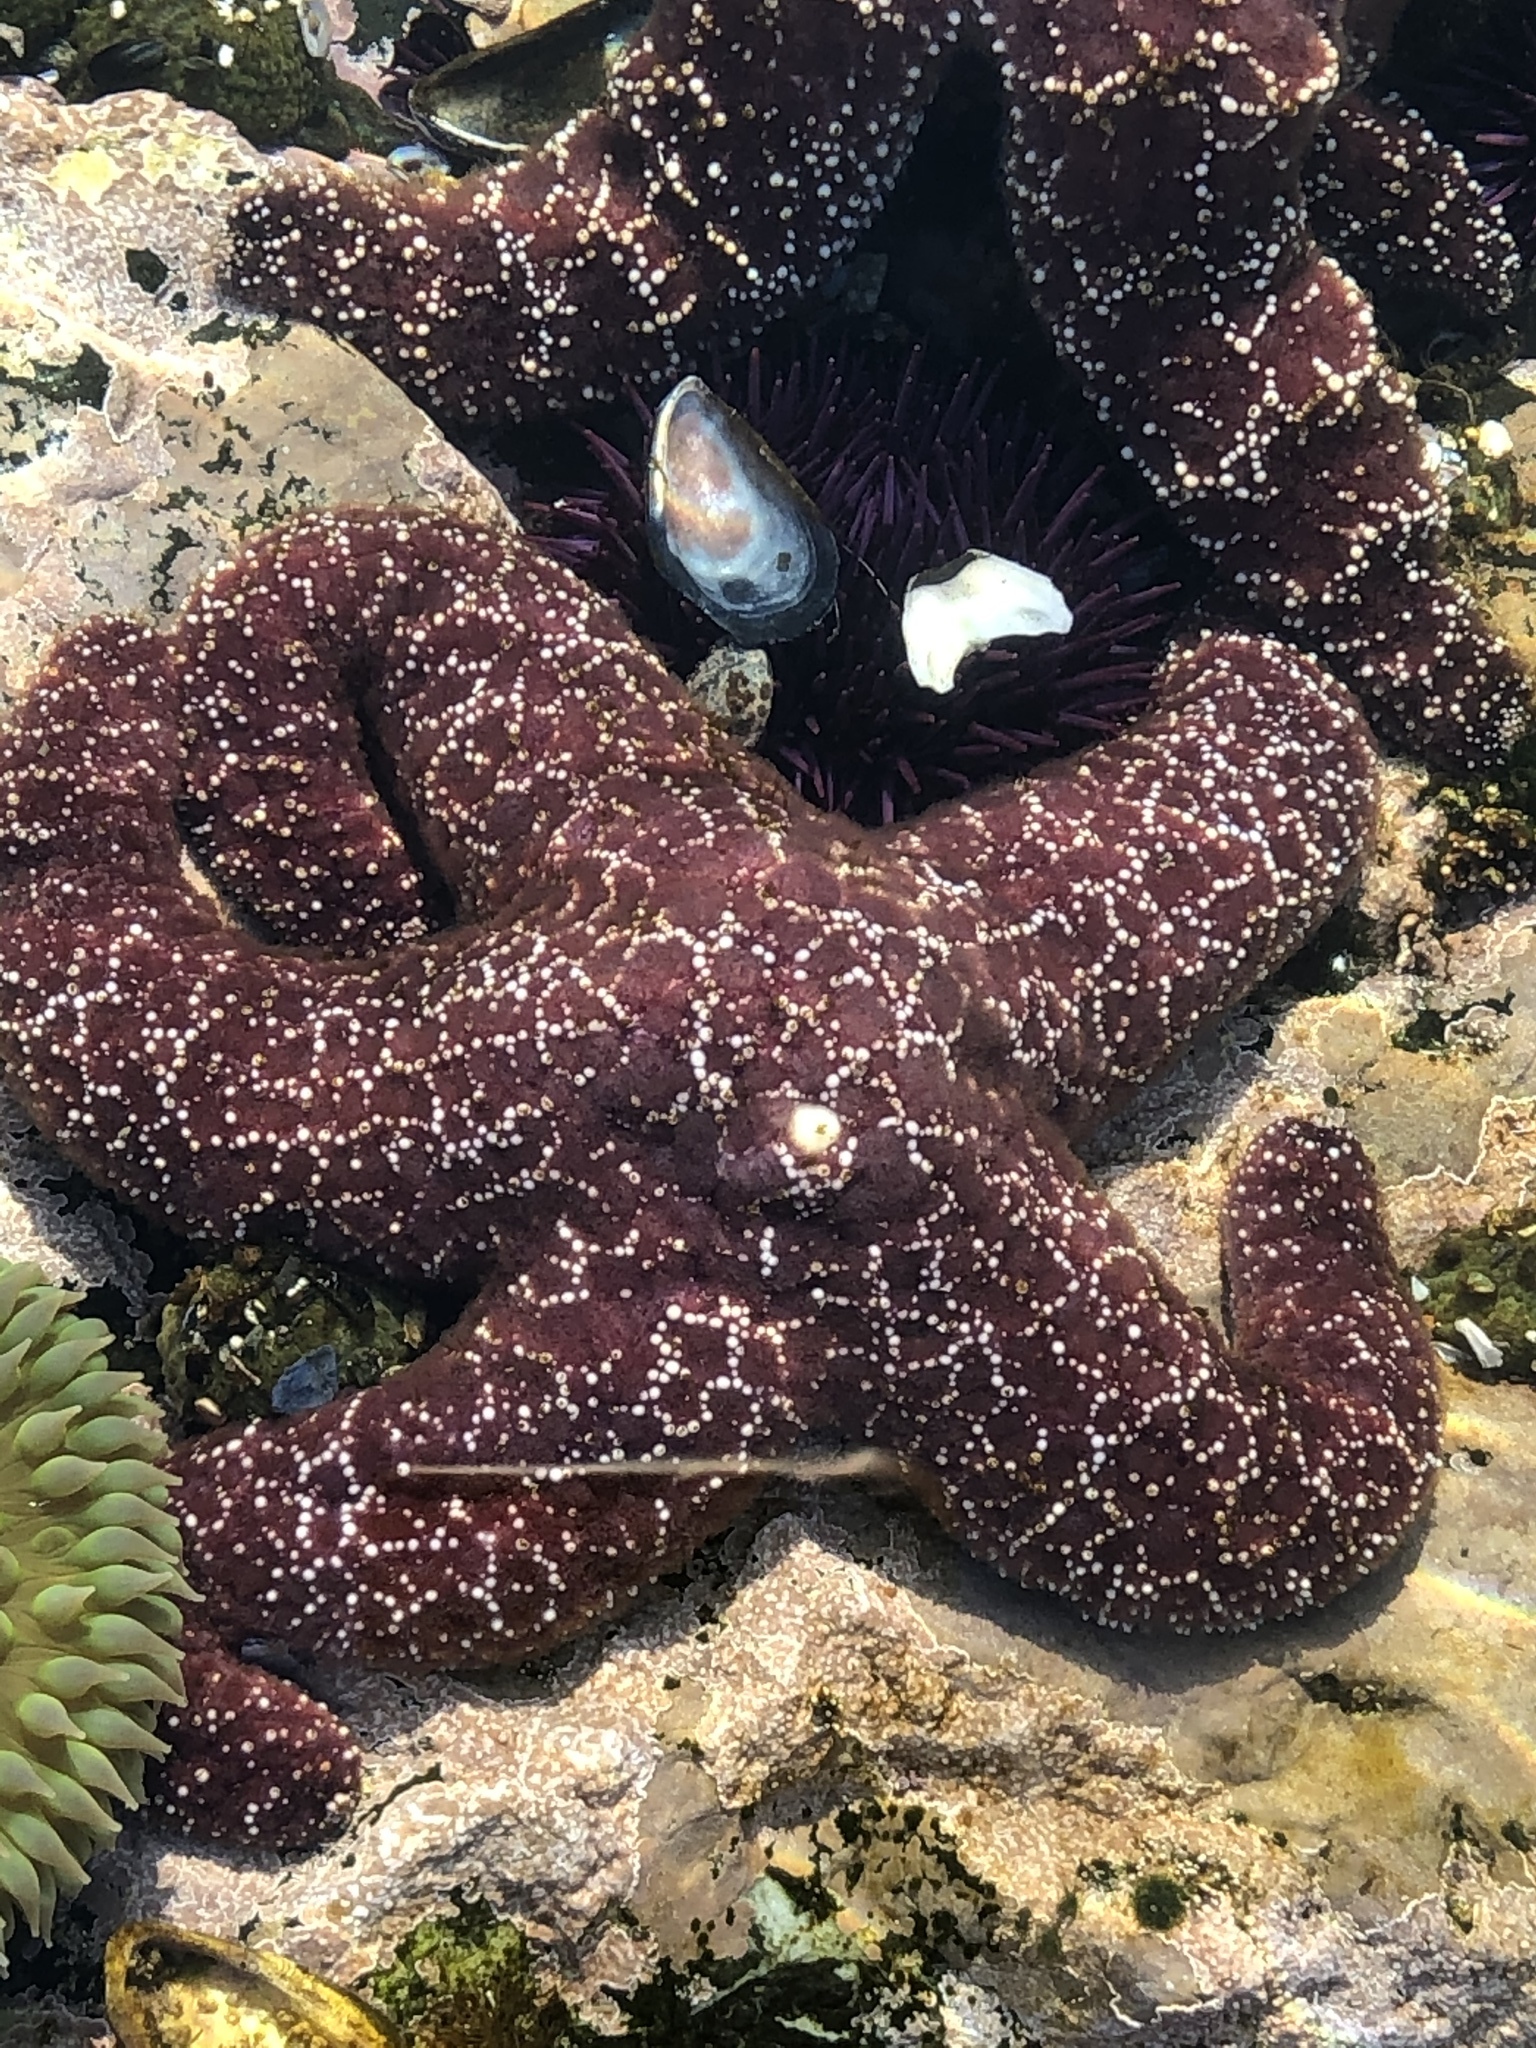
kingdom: Animalia
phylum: Echinodermata
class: Asteroidea
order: Forcipulatida
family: Asteriidae
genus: Pisaster
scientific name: Pisaster ochraceus
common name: Ochre stars
